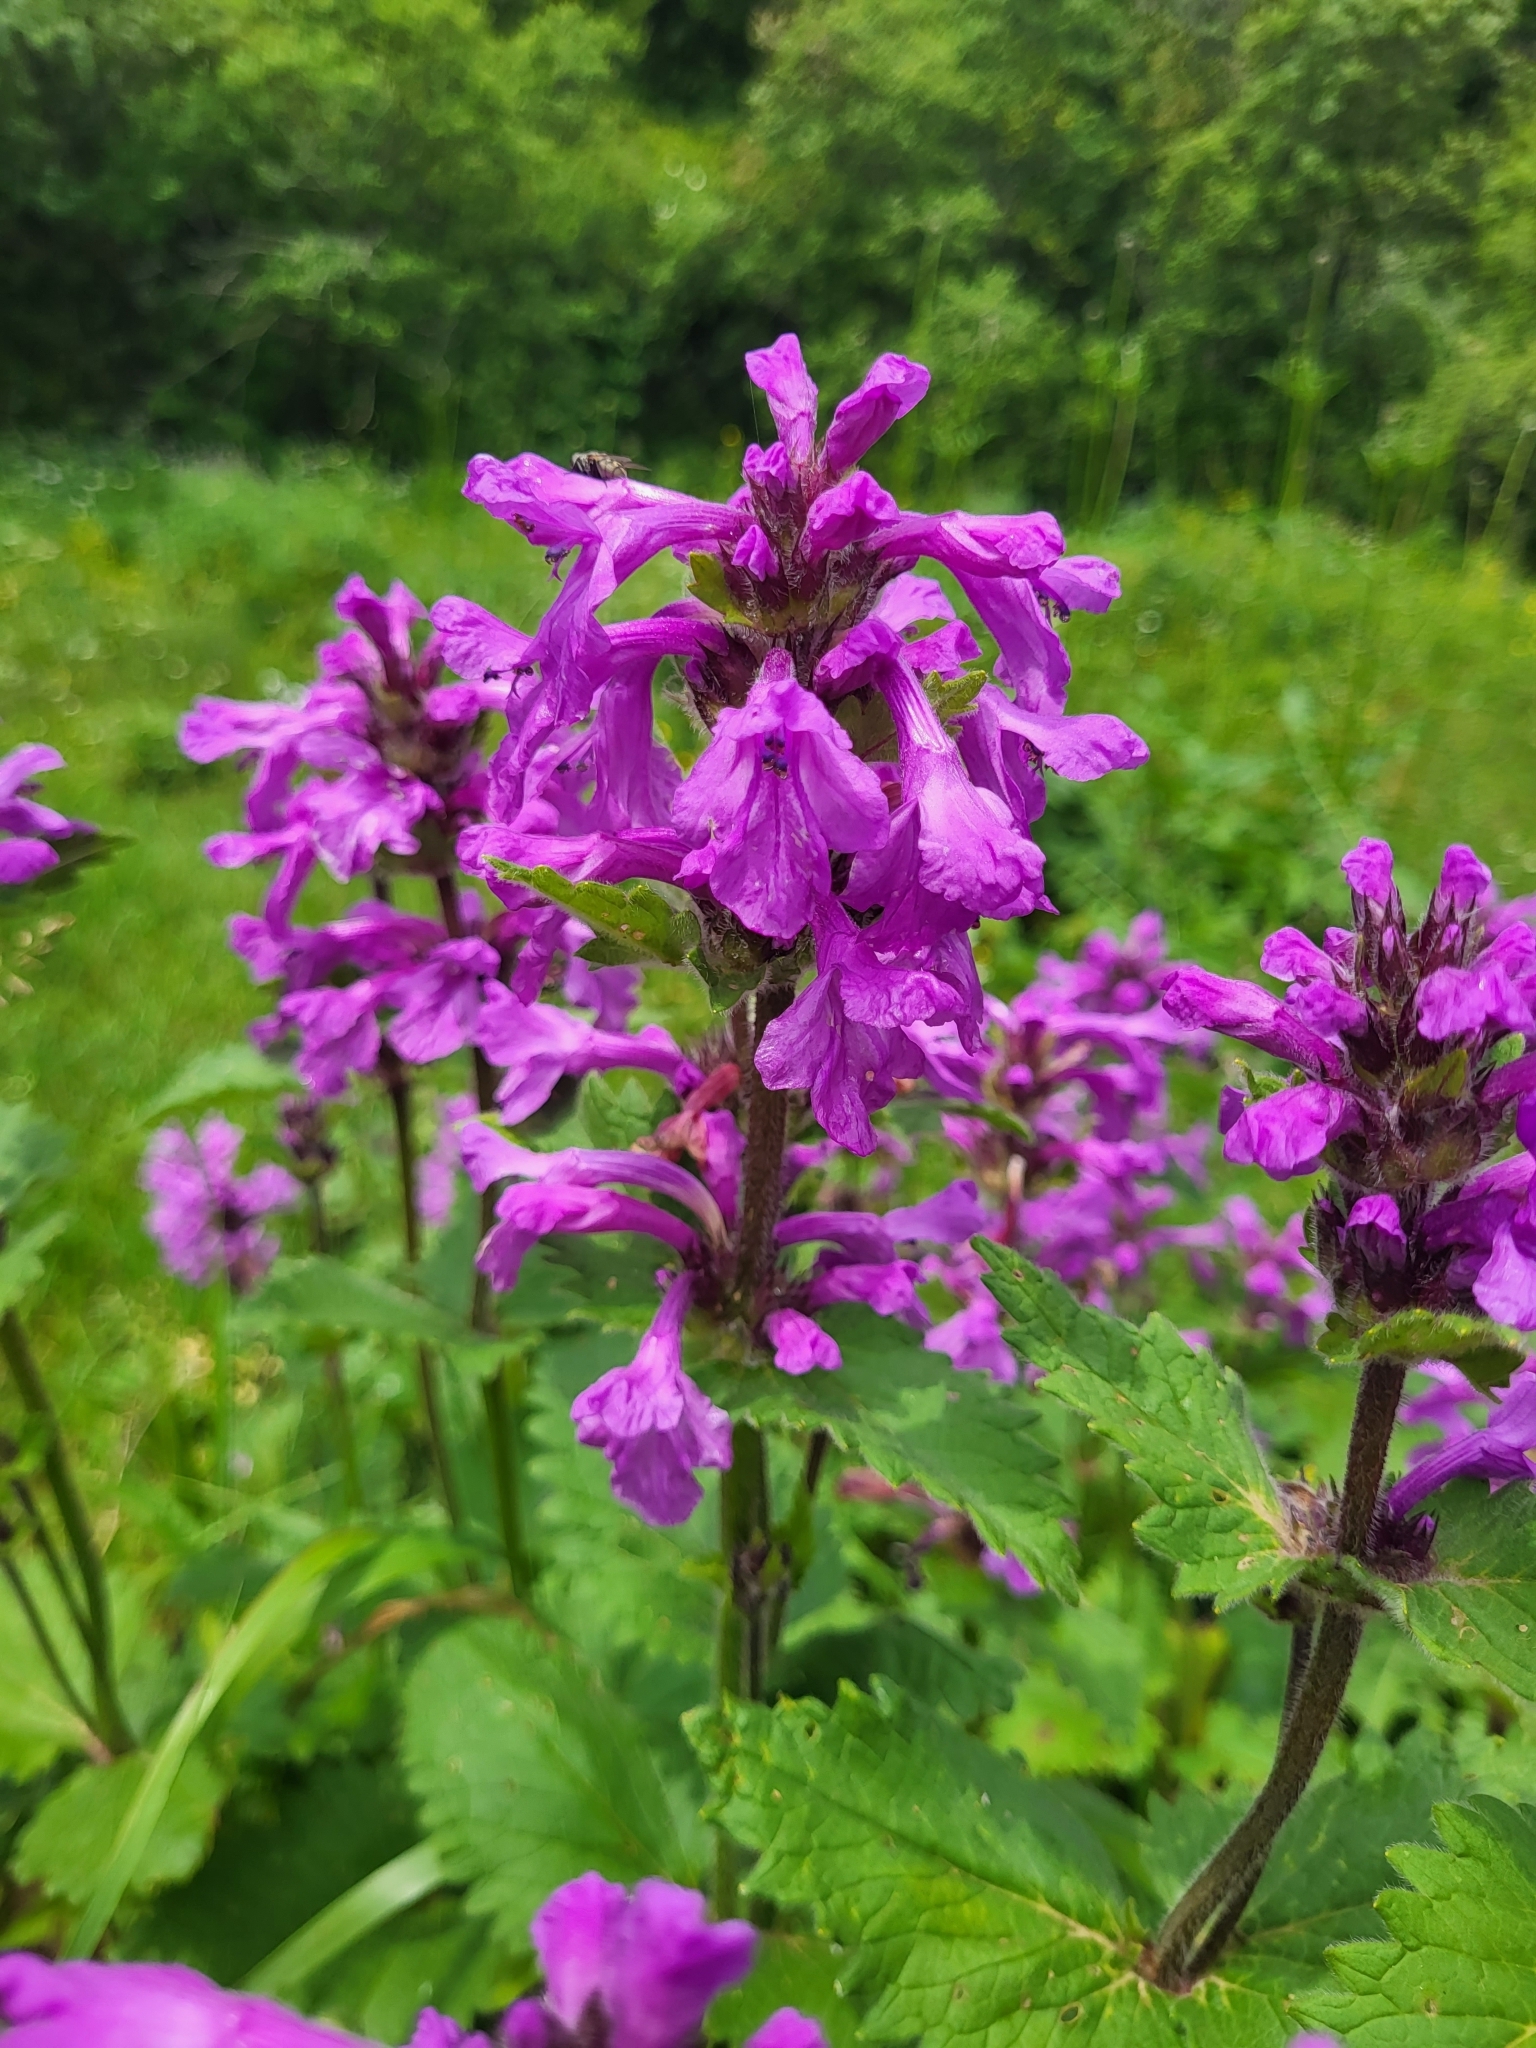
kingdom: Plantae
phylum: Tracheophyta
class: Magnoliopsida
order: Lamiales
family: Lamiaceae
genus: Betonica
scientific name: Betonica macrantha
